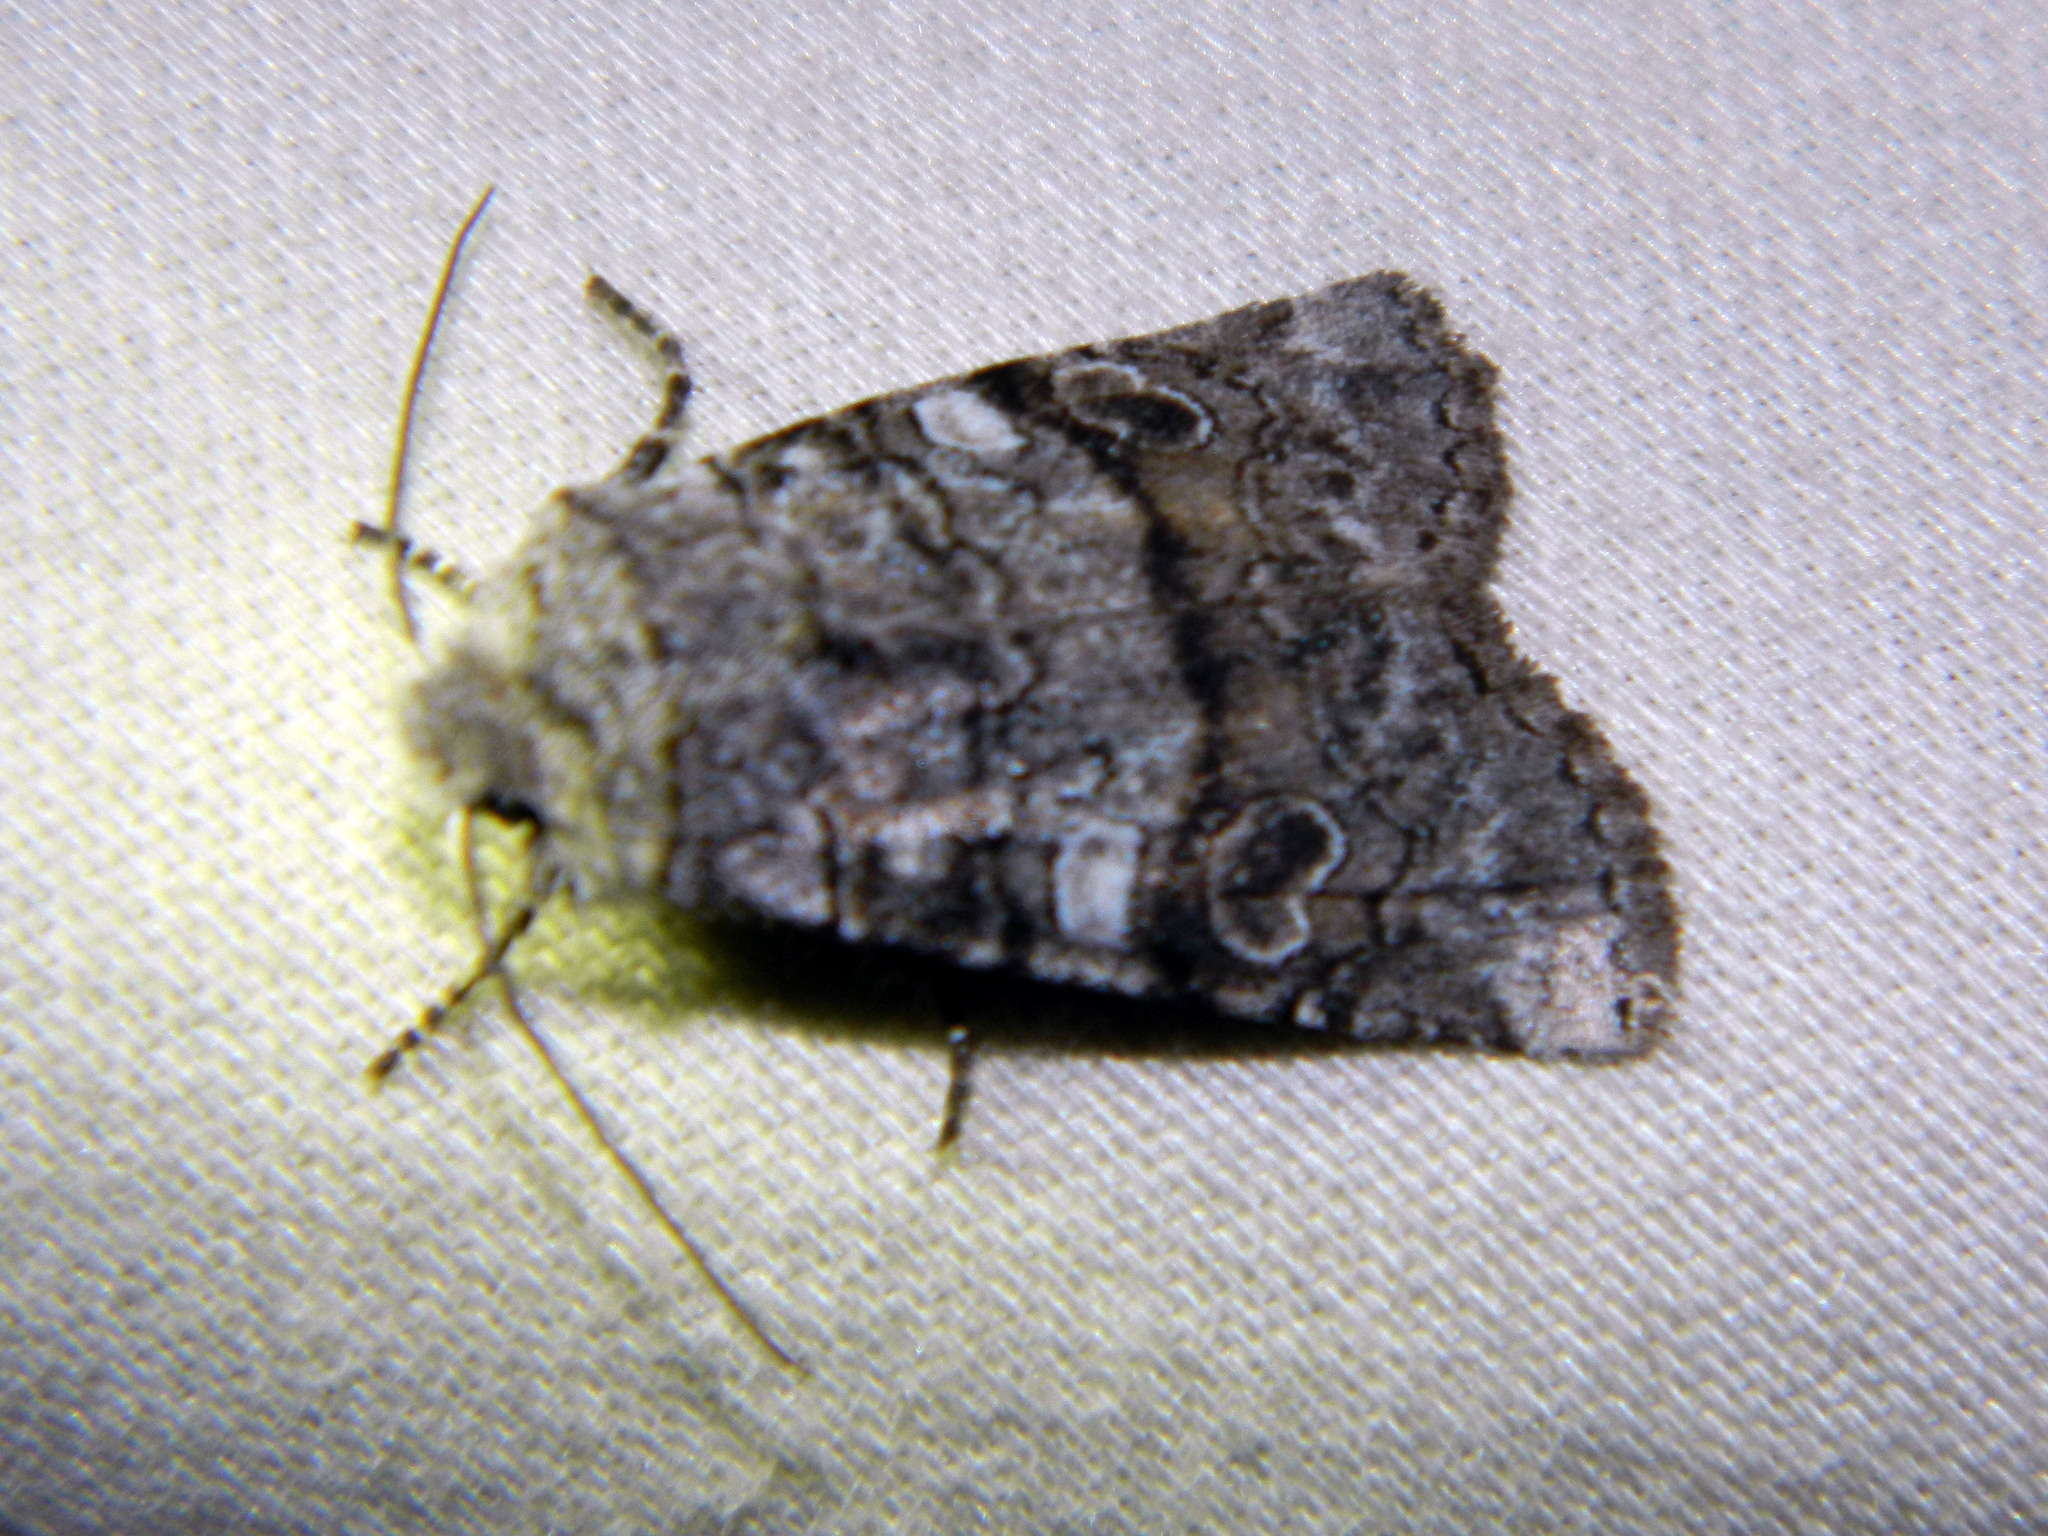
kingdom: Animalia
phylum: Arthropoda
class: Insecta
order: Lepidoptera
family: Noctuidae
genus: Litholomia
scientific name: Litholomia napaea
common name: False pinion moth
